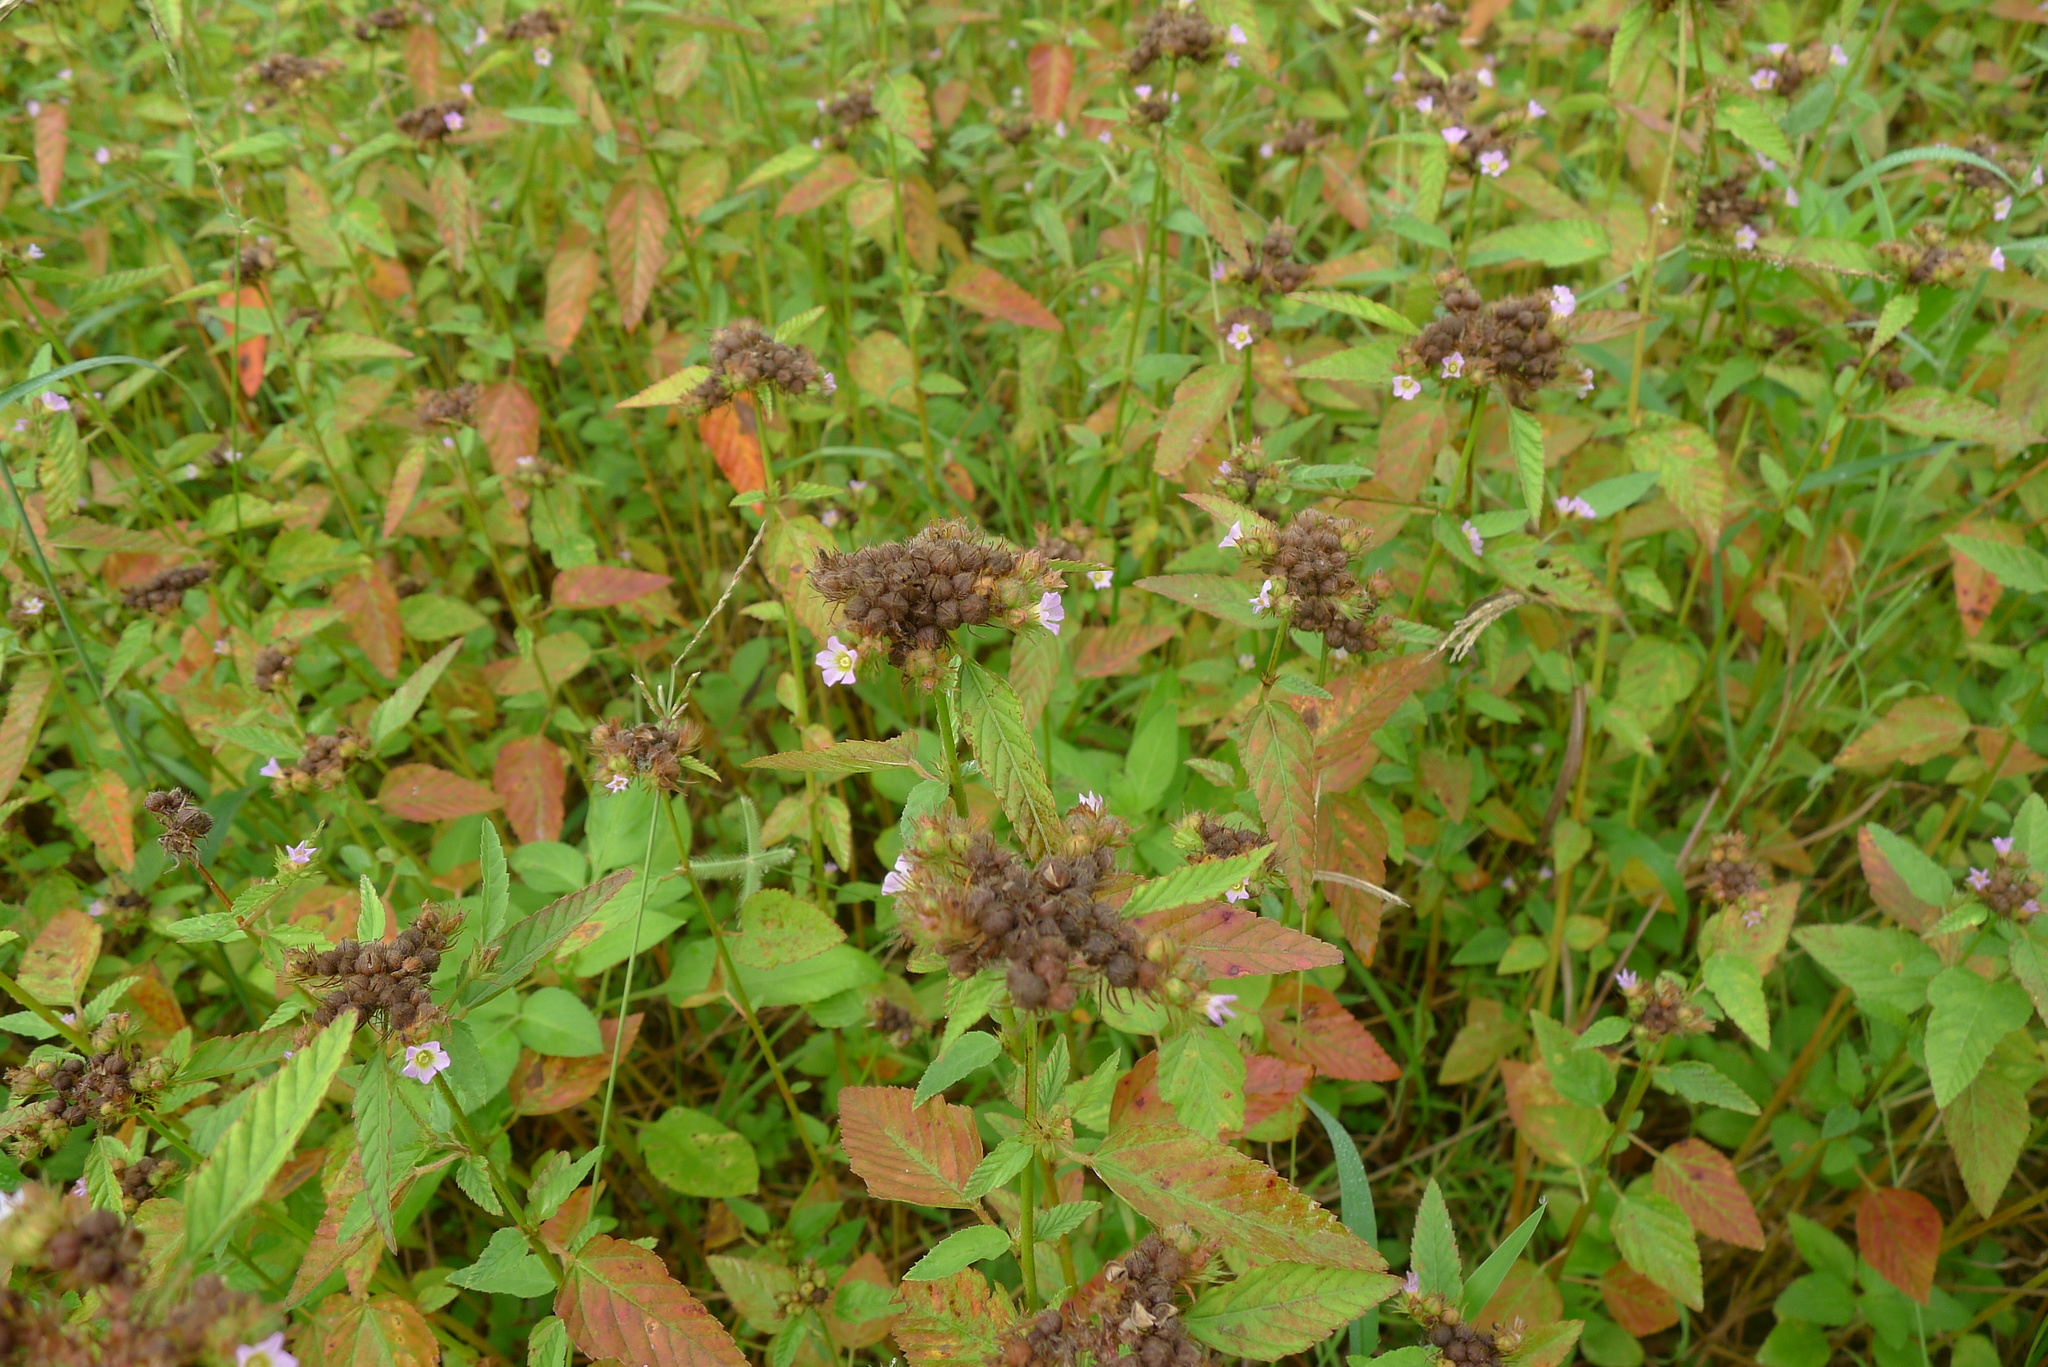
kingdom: Plantae
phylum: Tracheophyta
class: Magnoliopsida
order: Malvales
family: Malvaceae
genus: Melochia
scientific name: Melochia corchorifolia
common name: Chocolateweed
